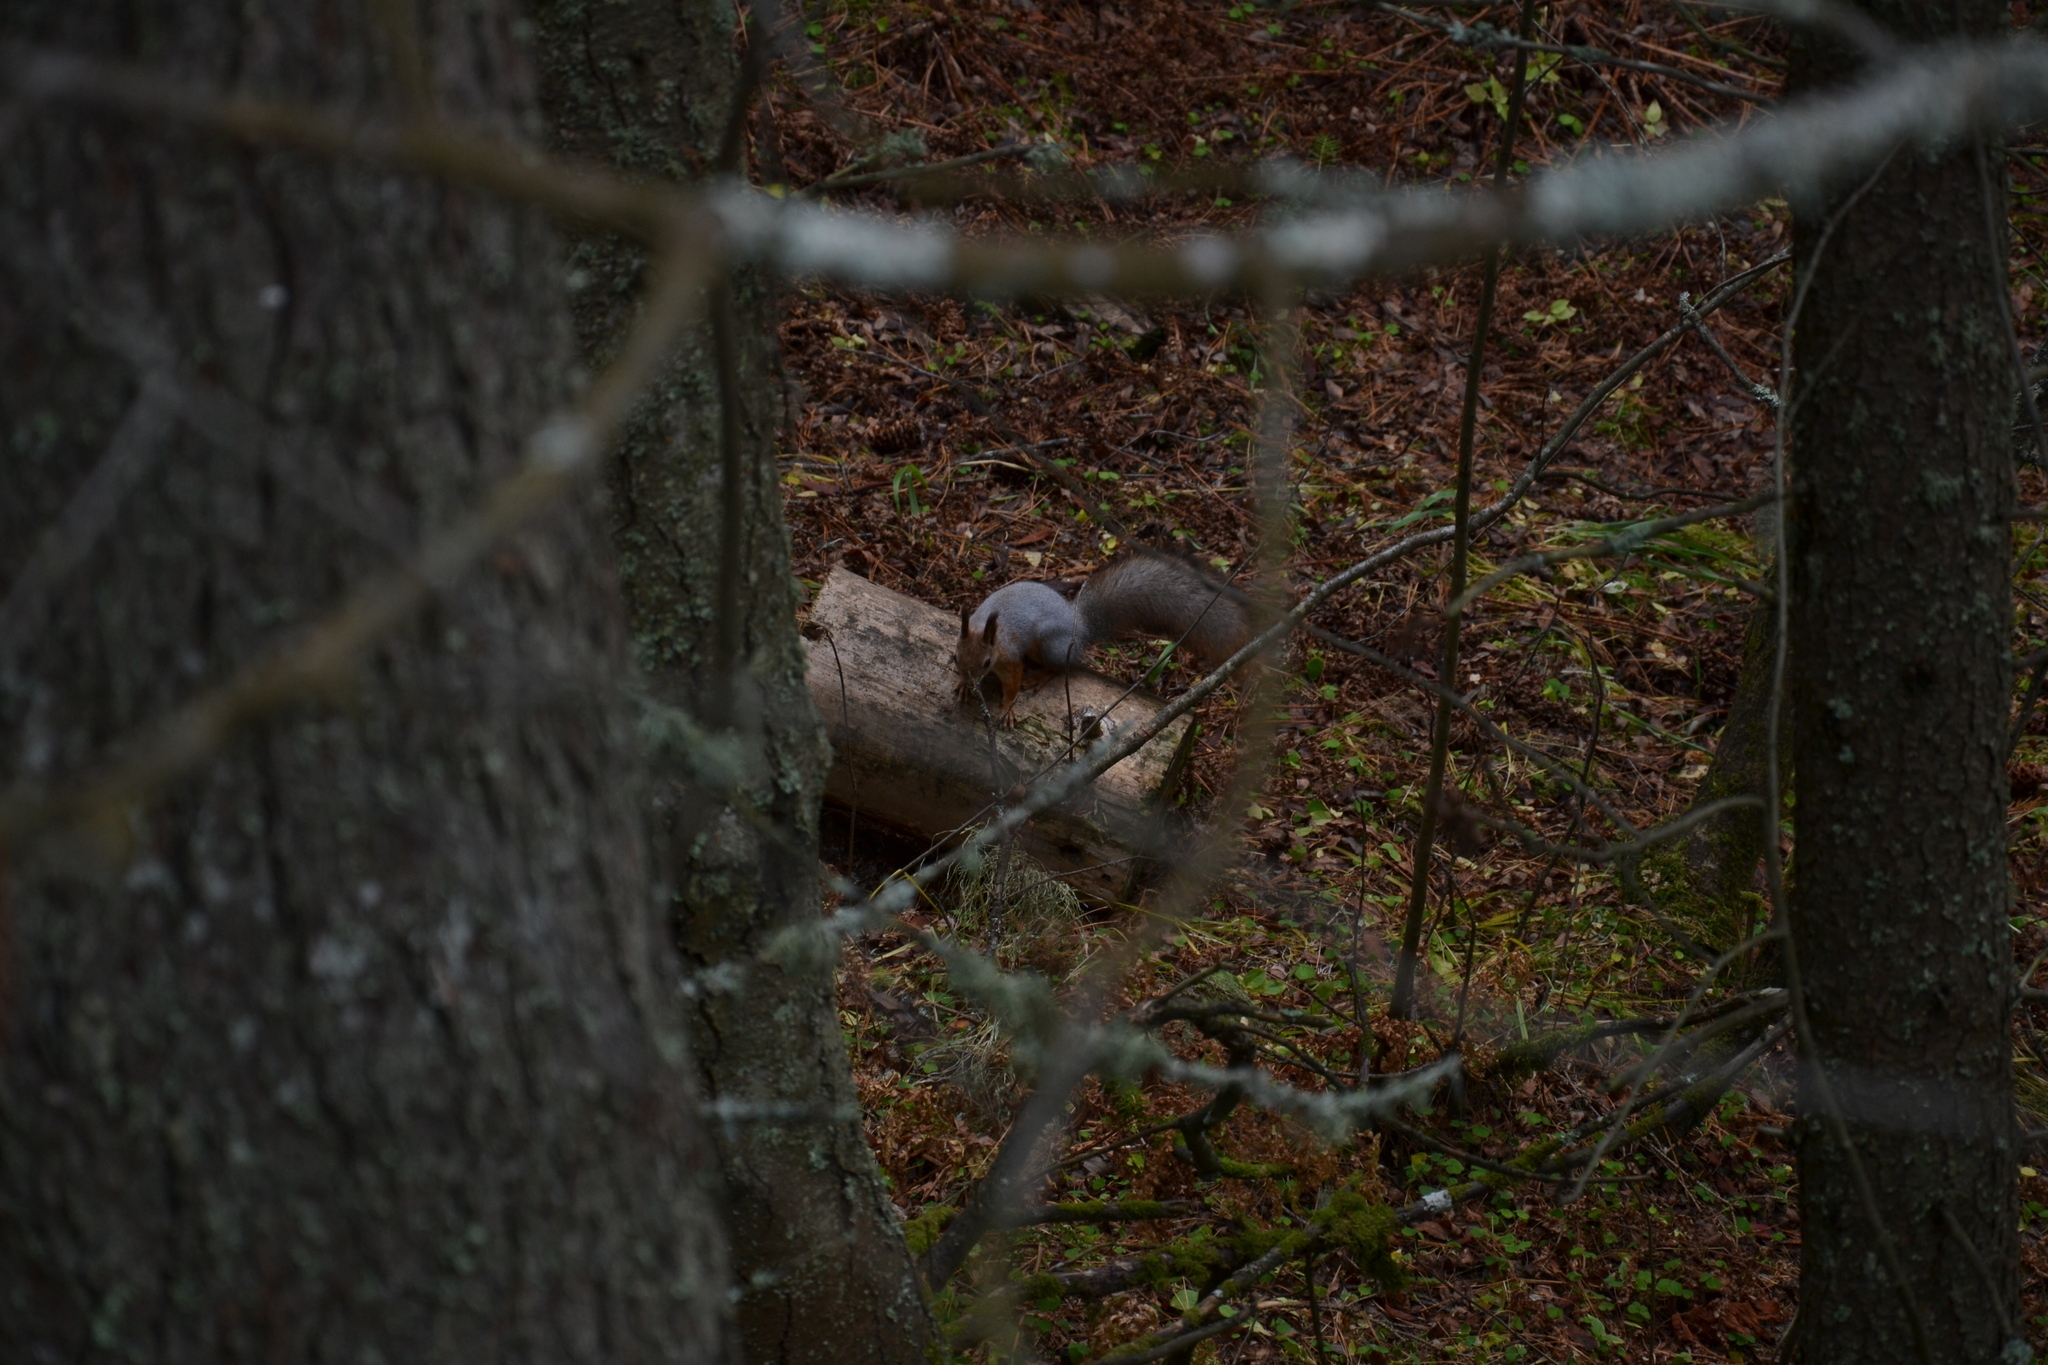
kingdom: Animalia
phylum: Chordata
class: Mammalia
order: Rodentia
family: Sciuridae
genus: Sciurus
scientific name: Sciurus vulgaris
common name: Eurasian red squirrel
